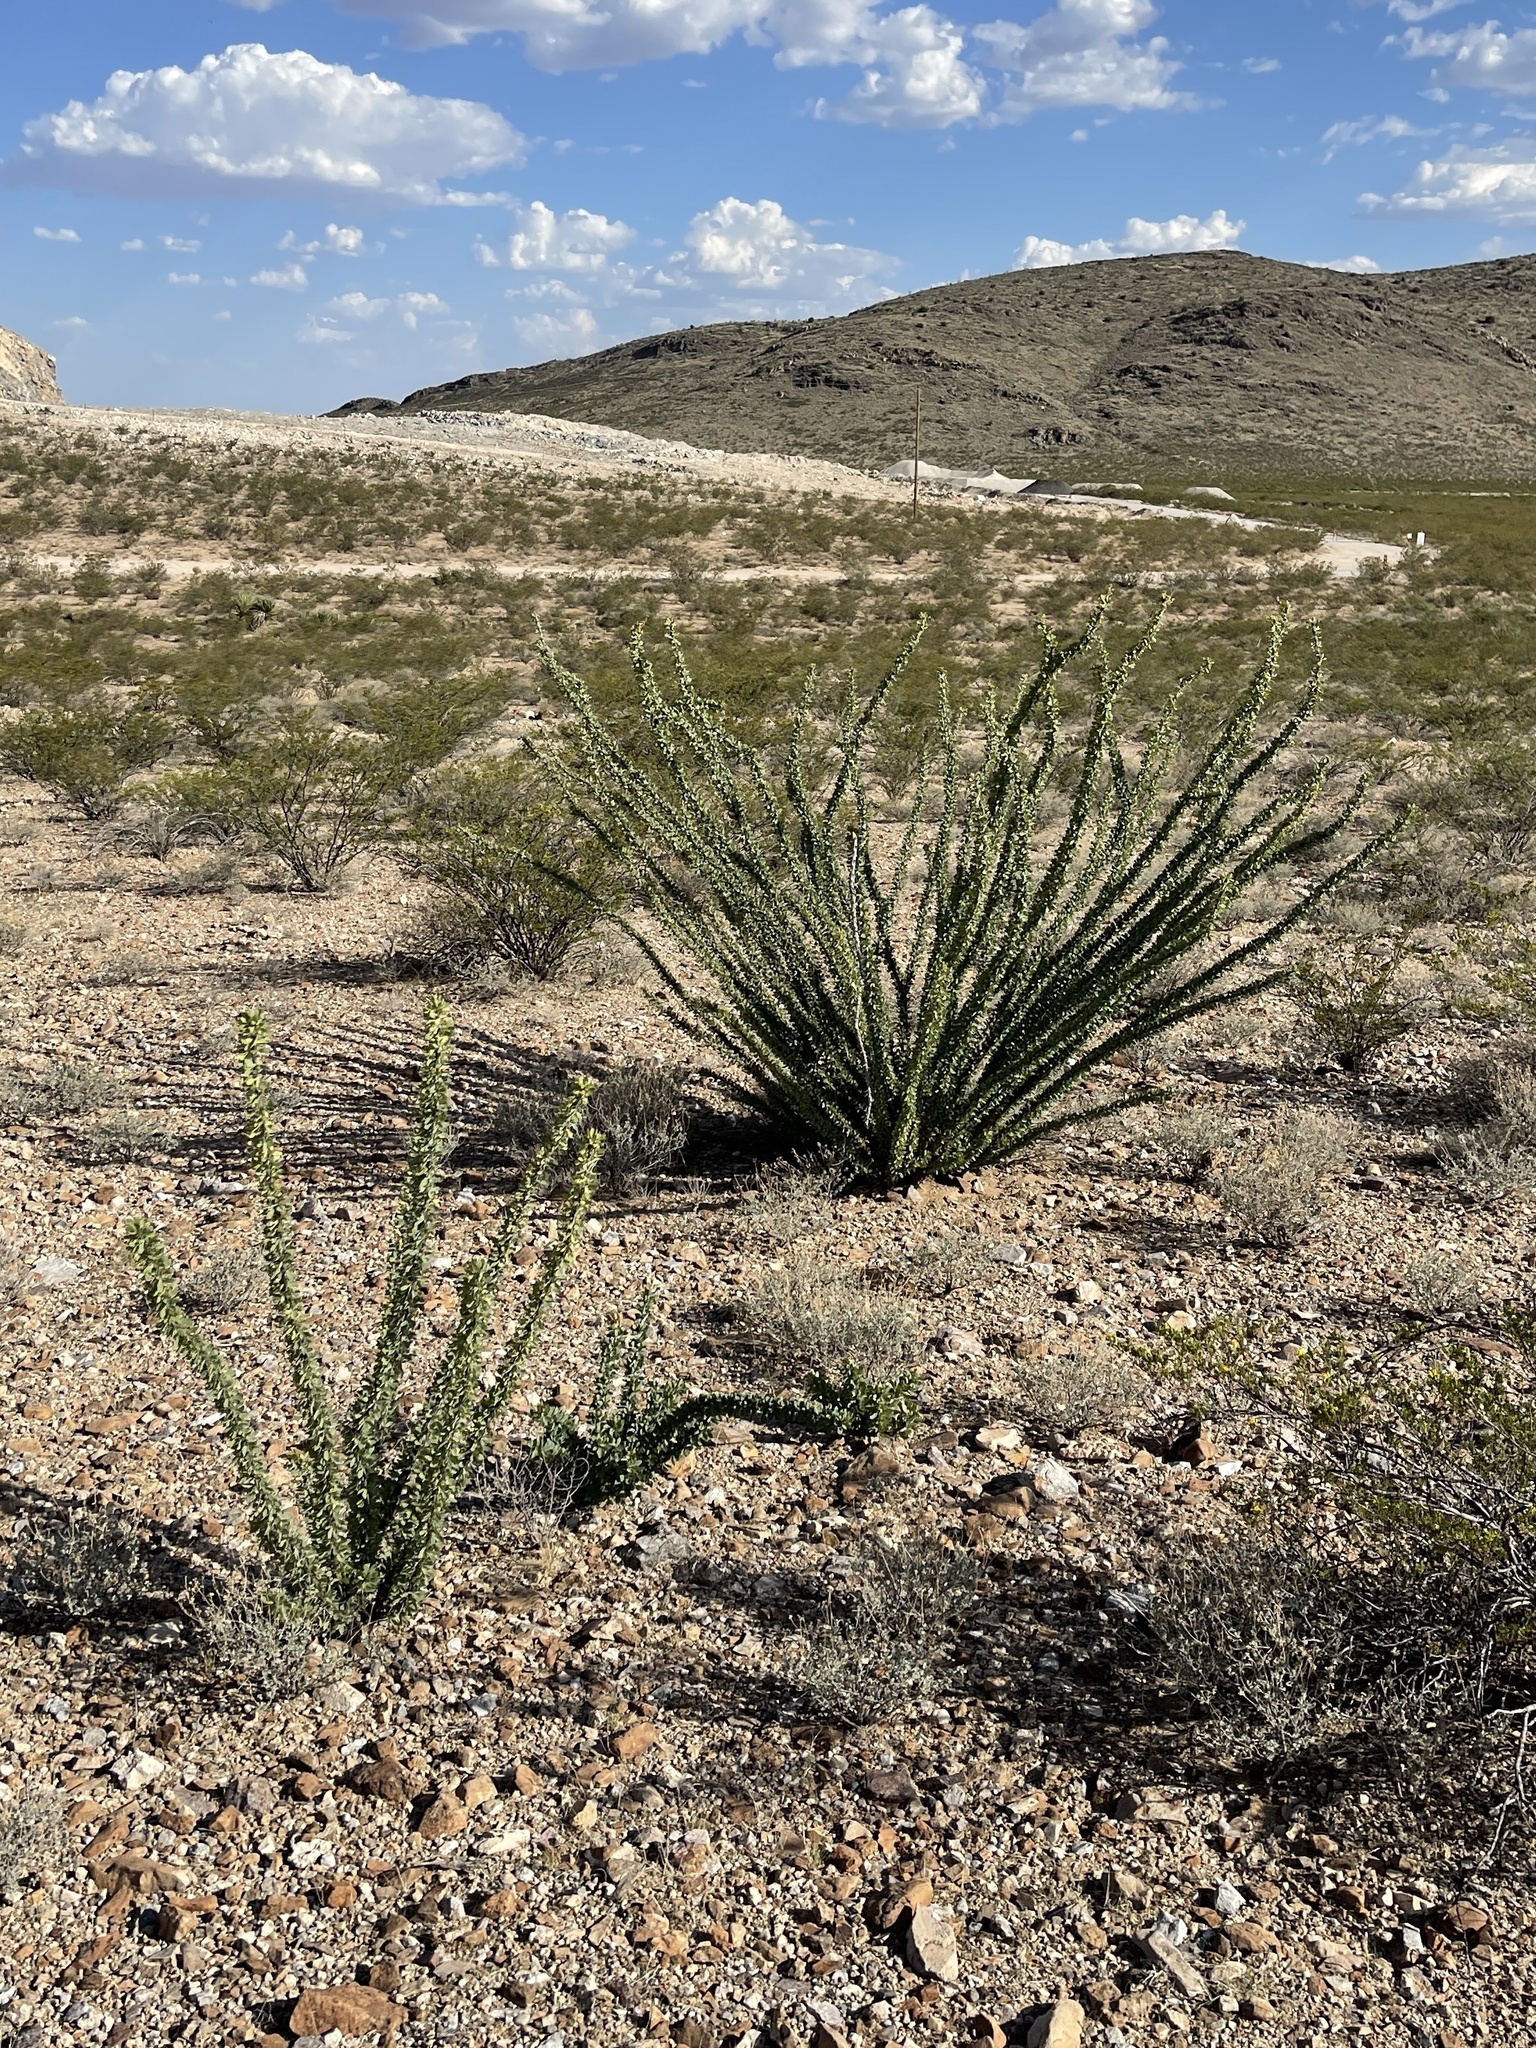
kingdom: Plantae
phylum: Tracheophyta
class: Magnoliopsida
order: Ericales
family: Fouquieriaceae
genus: Fouquieria
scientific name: Fouquieria splendens
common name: Vine-cactus
